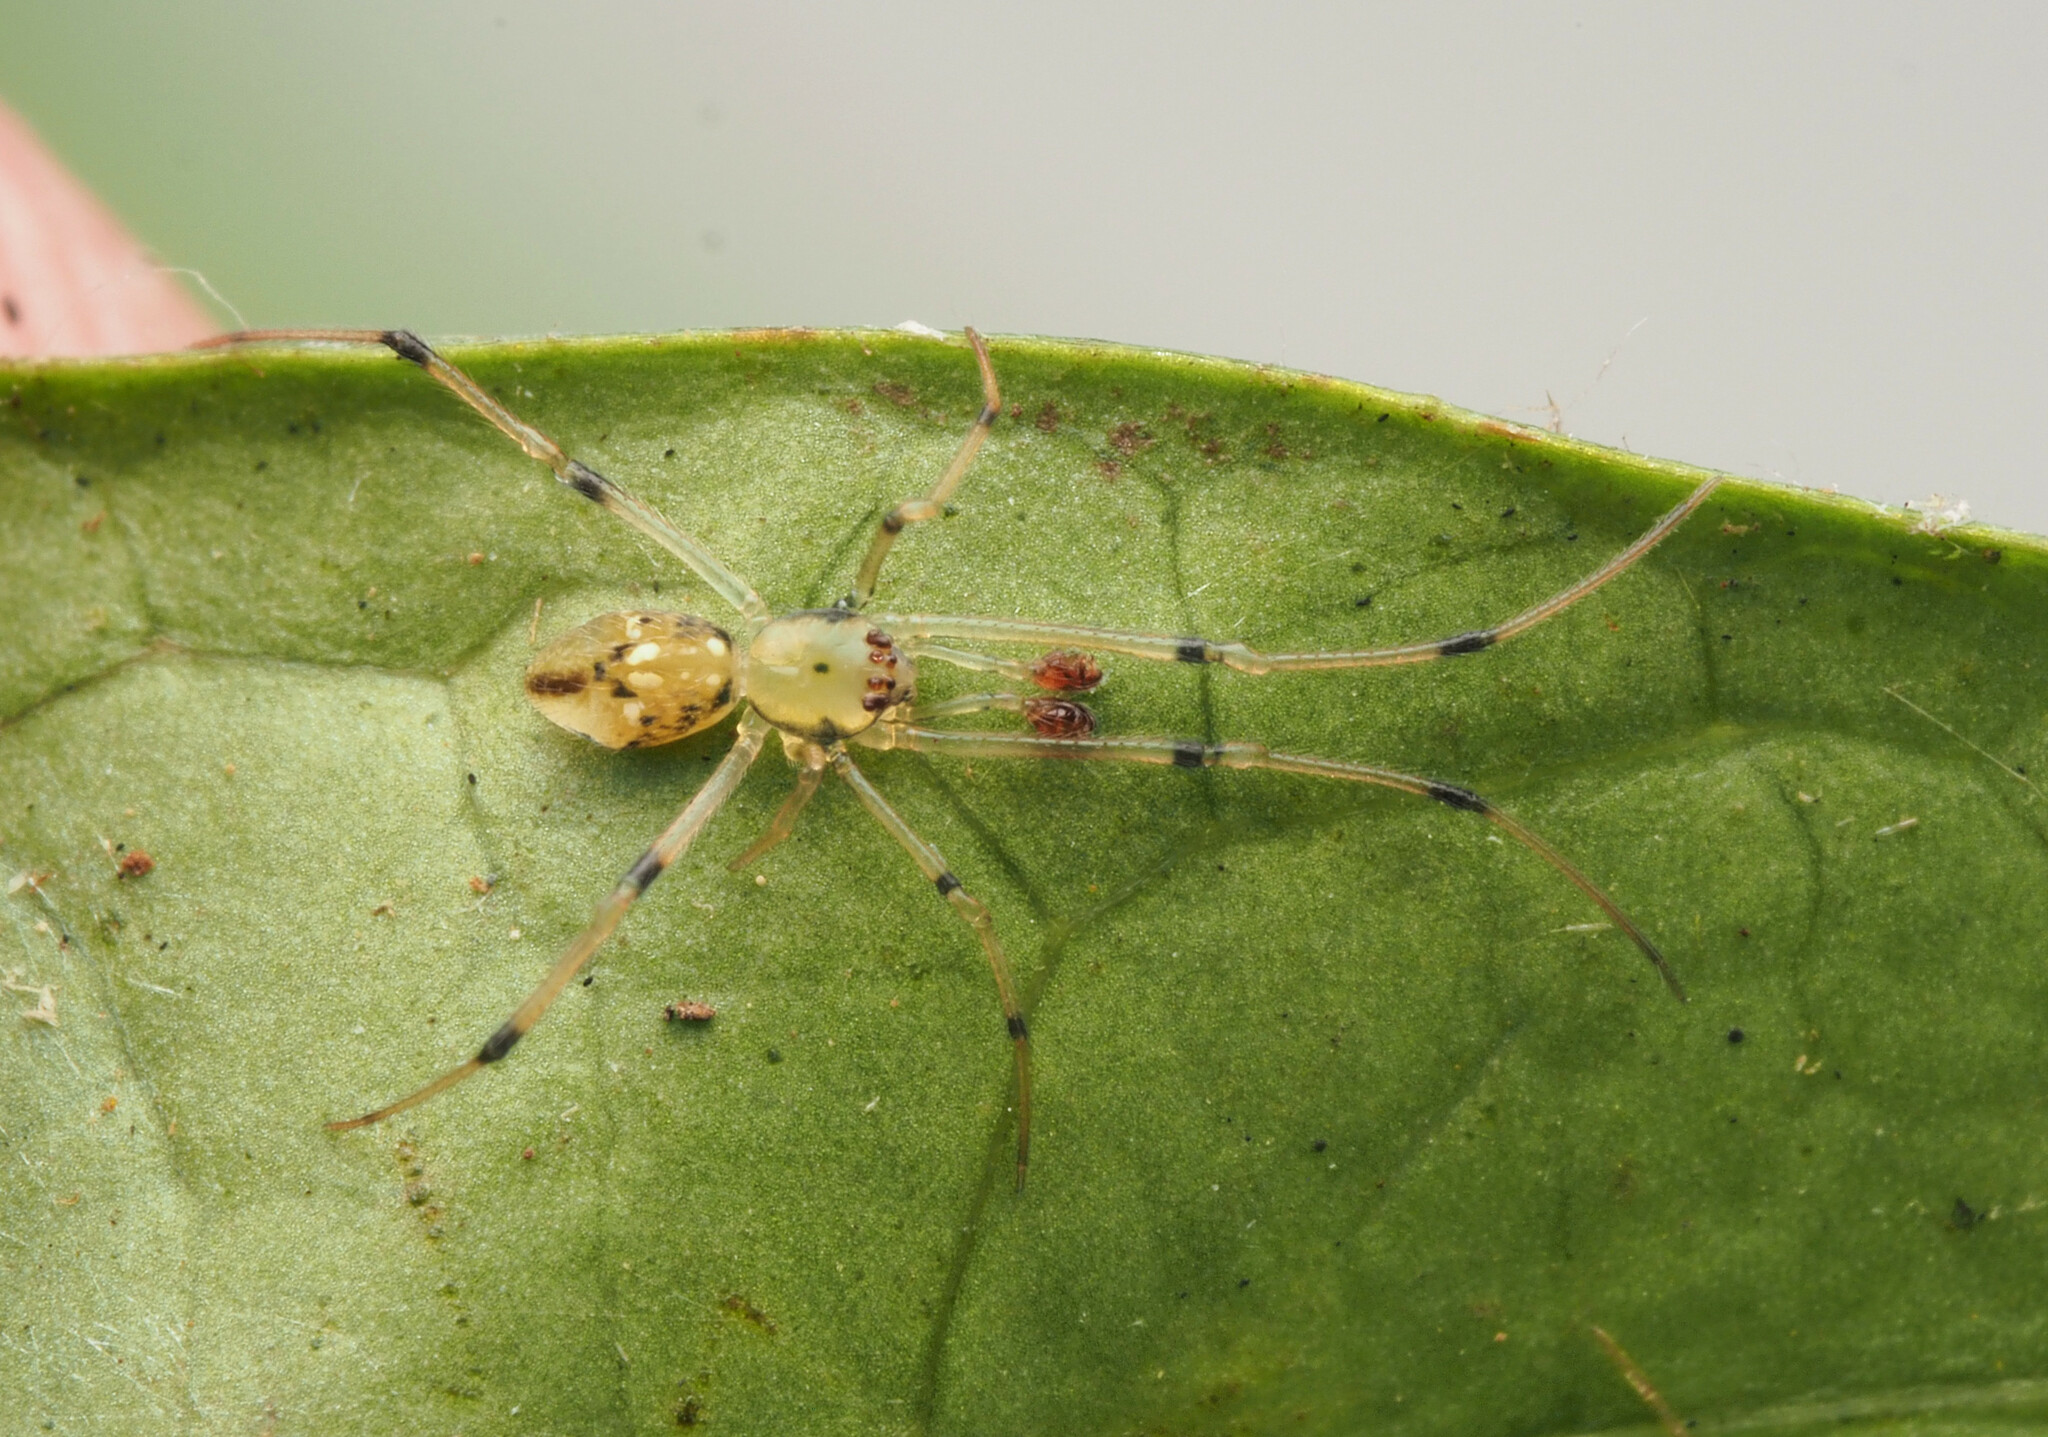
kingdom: Animalia
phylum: Arthropoda
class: Arachnida
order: Araneae
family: Theridiidae
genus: Moneta
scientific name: Moneta
